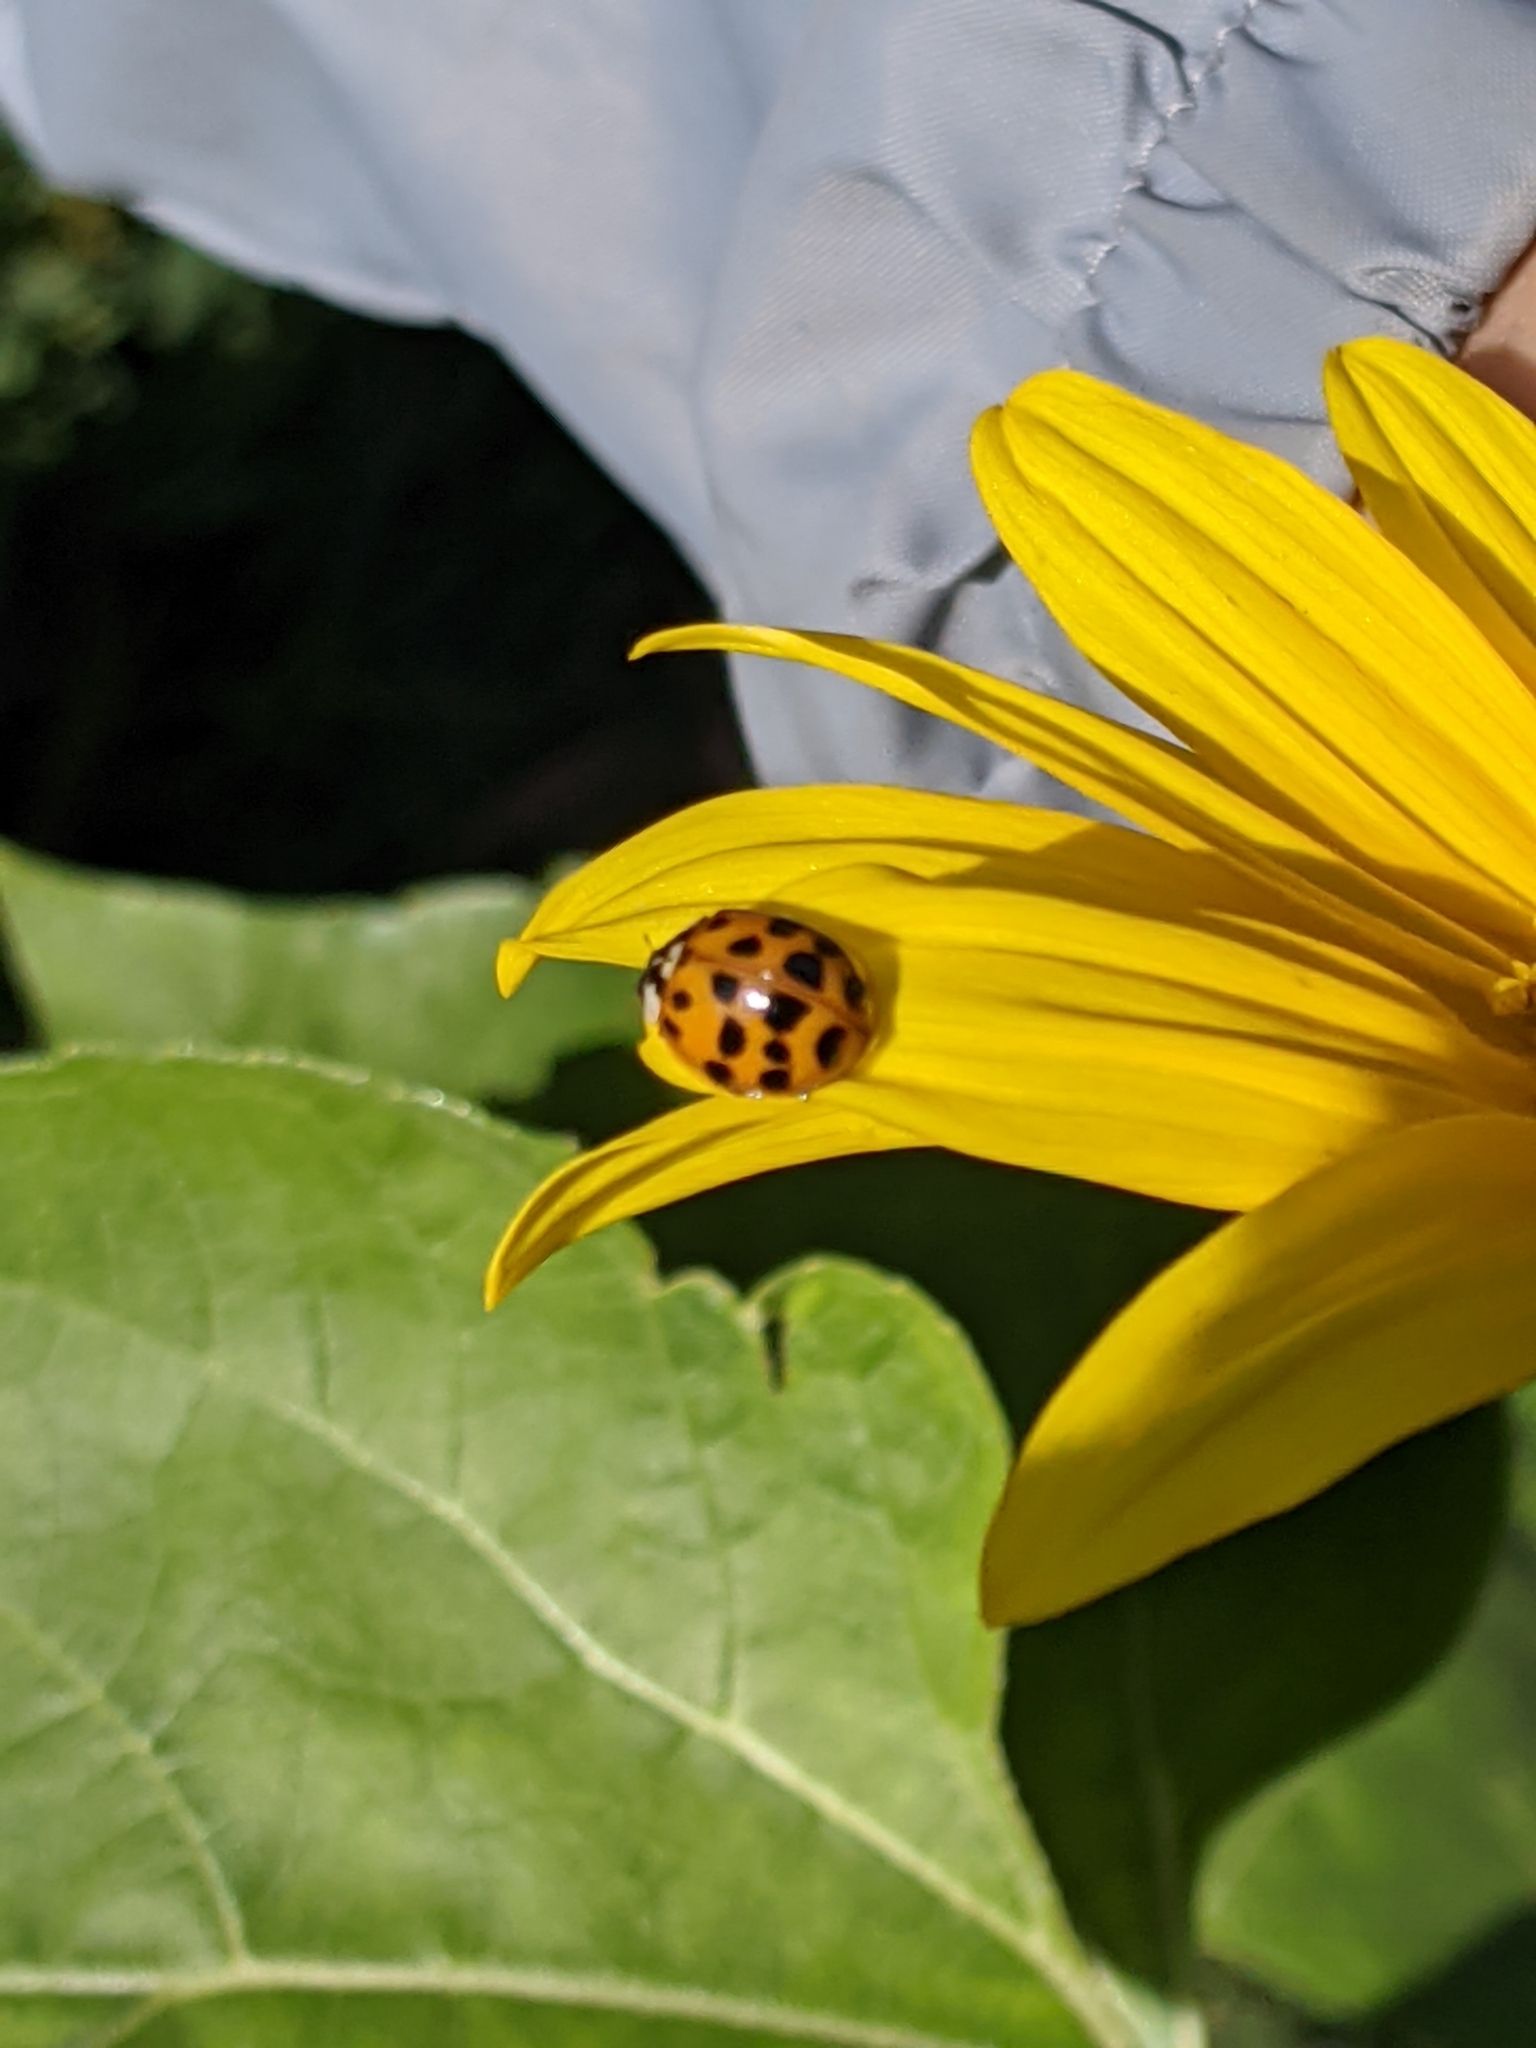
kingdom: Animalia
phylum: Arthropoda
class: Insecta
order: Coleoptera
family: Coccinellidae
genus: Harmonia
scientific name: Harmonia axyridis
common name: Harlequin ladybird
